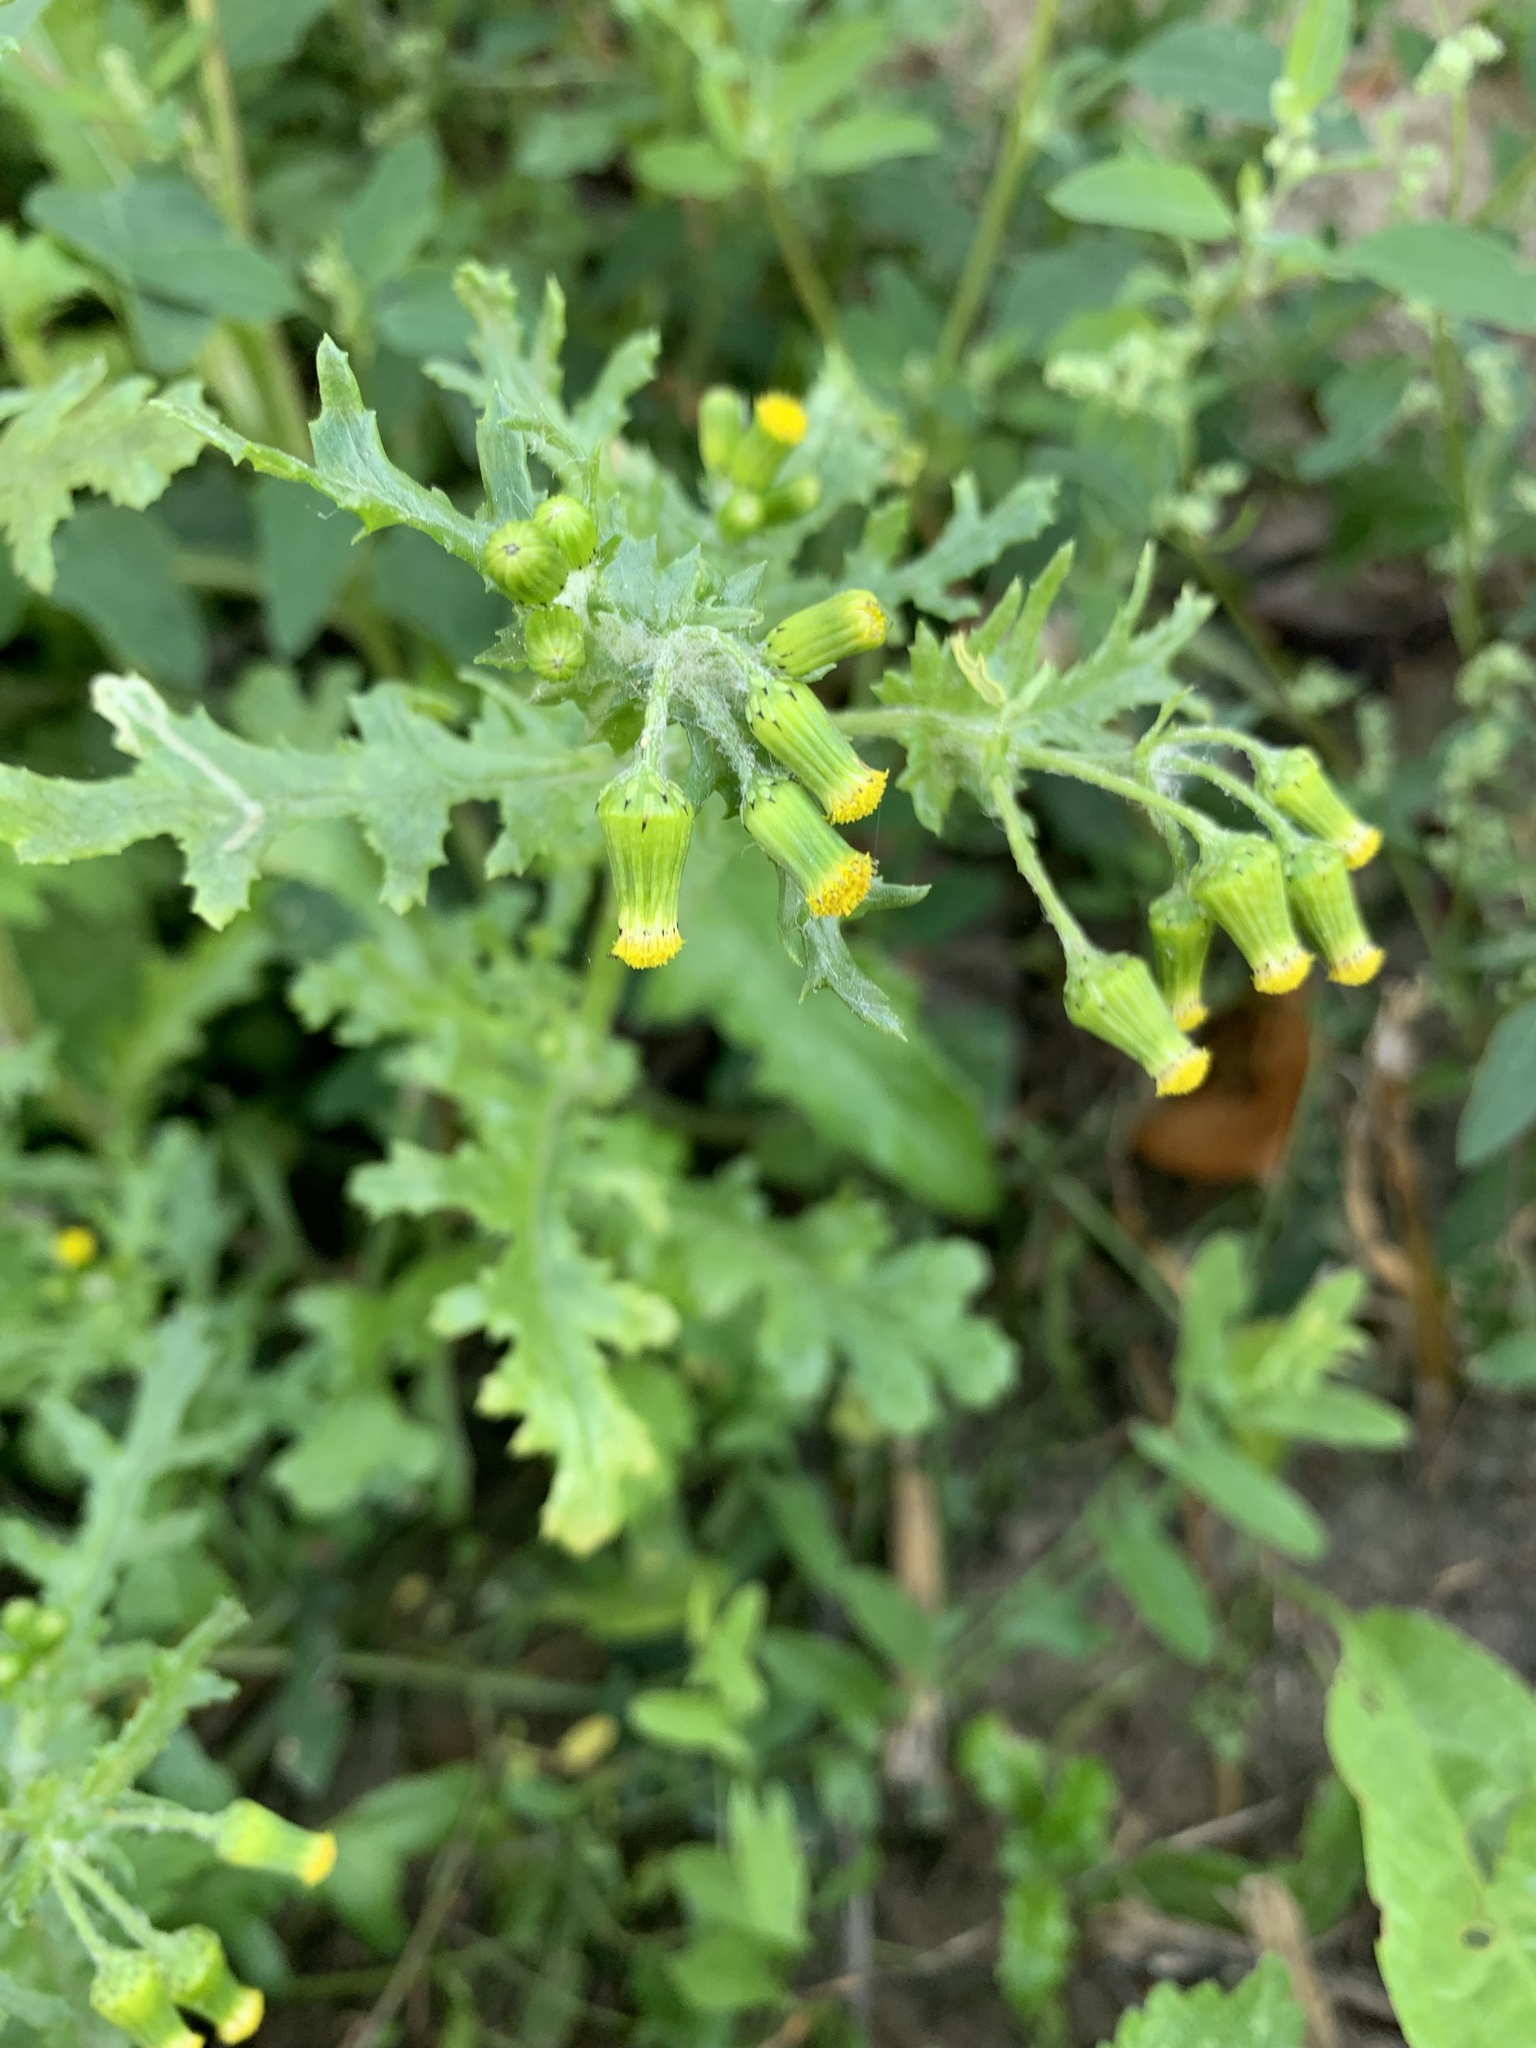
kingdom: Plantae
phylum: Tracheophyta
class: Magnoliopsida
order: Asterales
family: Asteraceae
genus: Senecio
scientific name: Senecio vulgaris
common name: Old-man-in-the-spring
